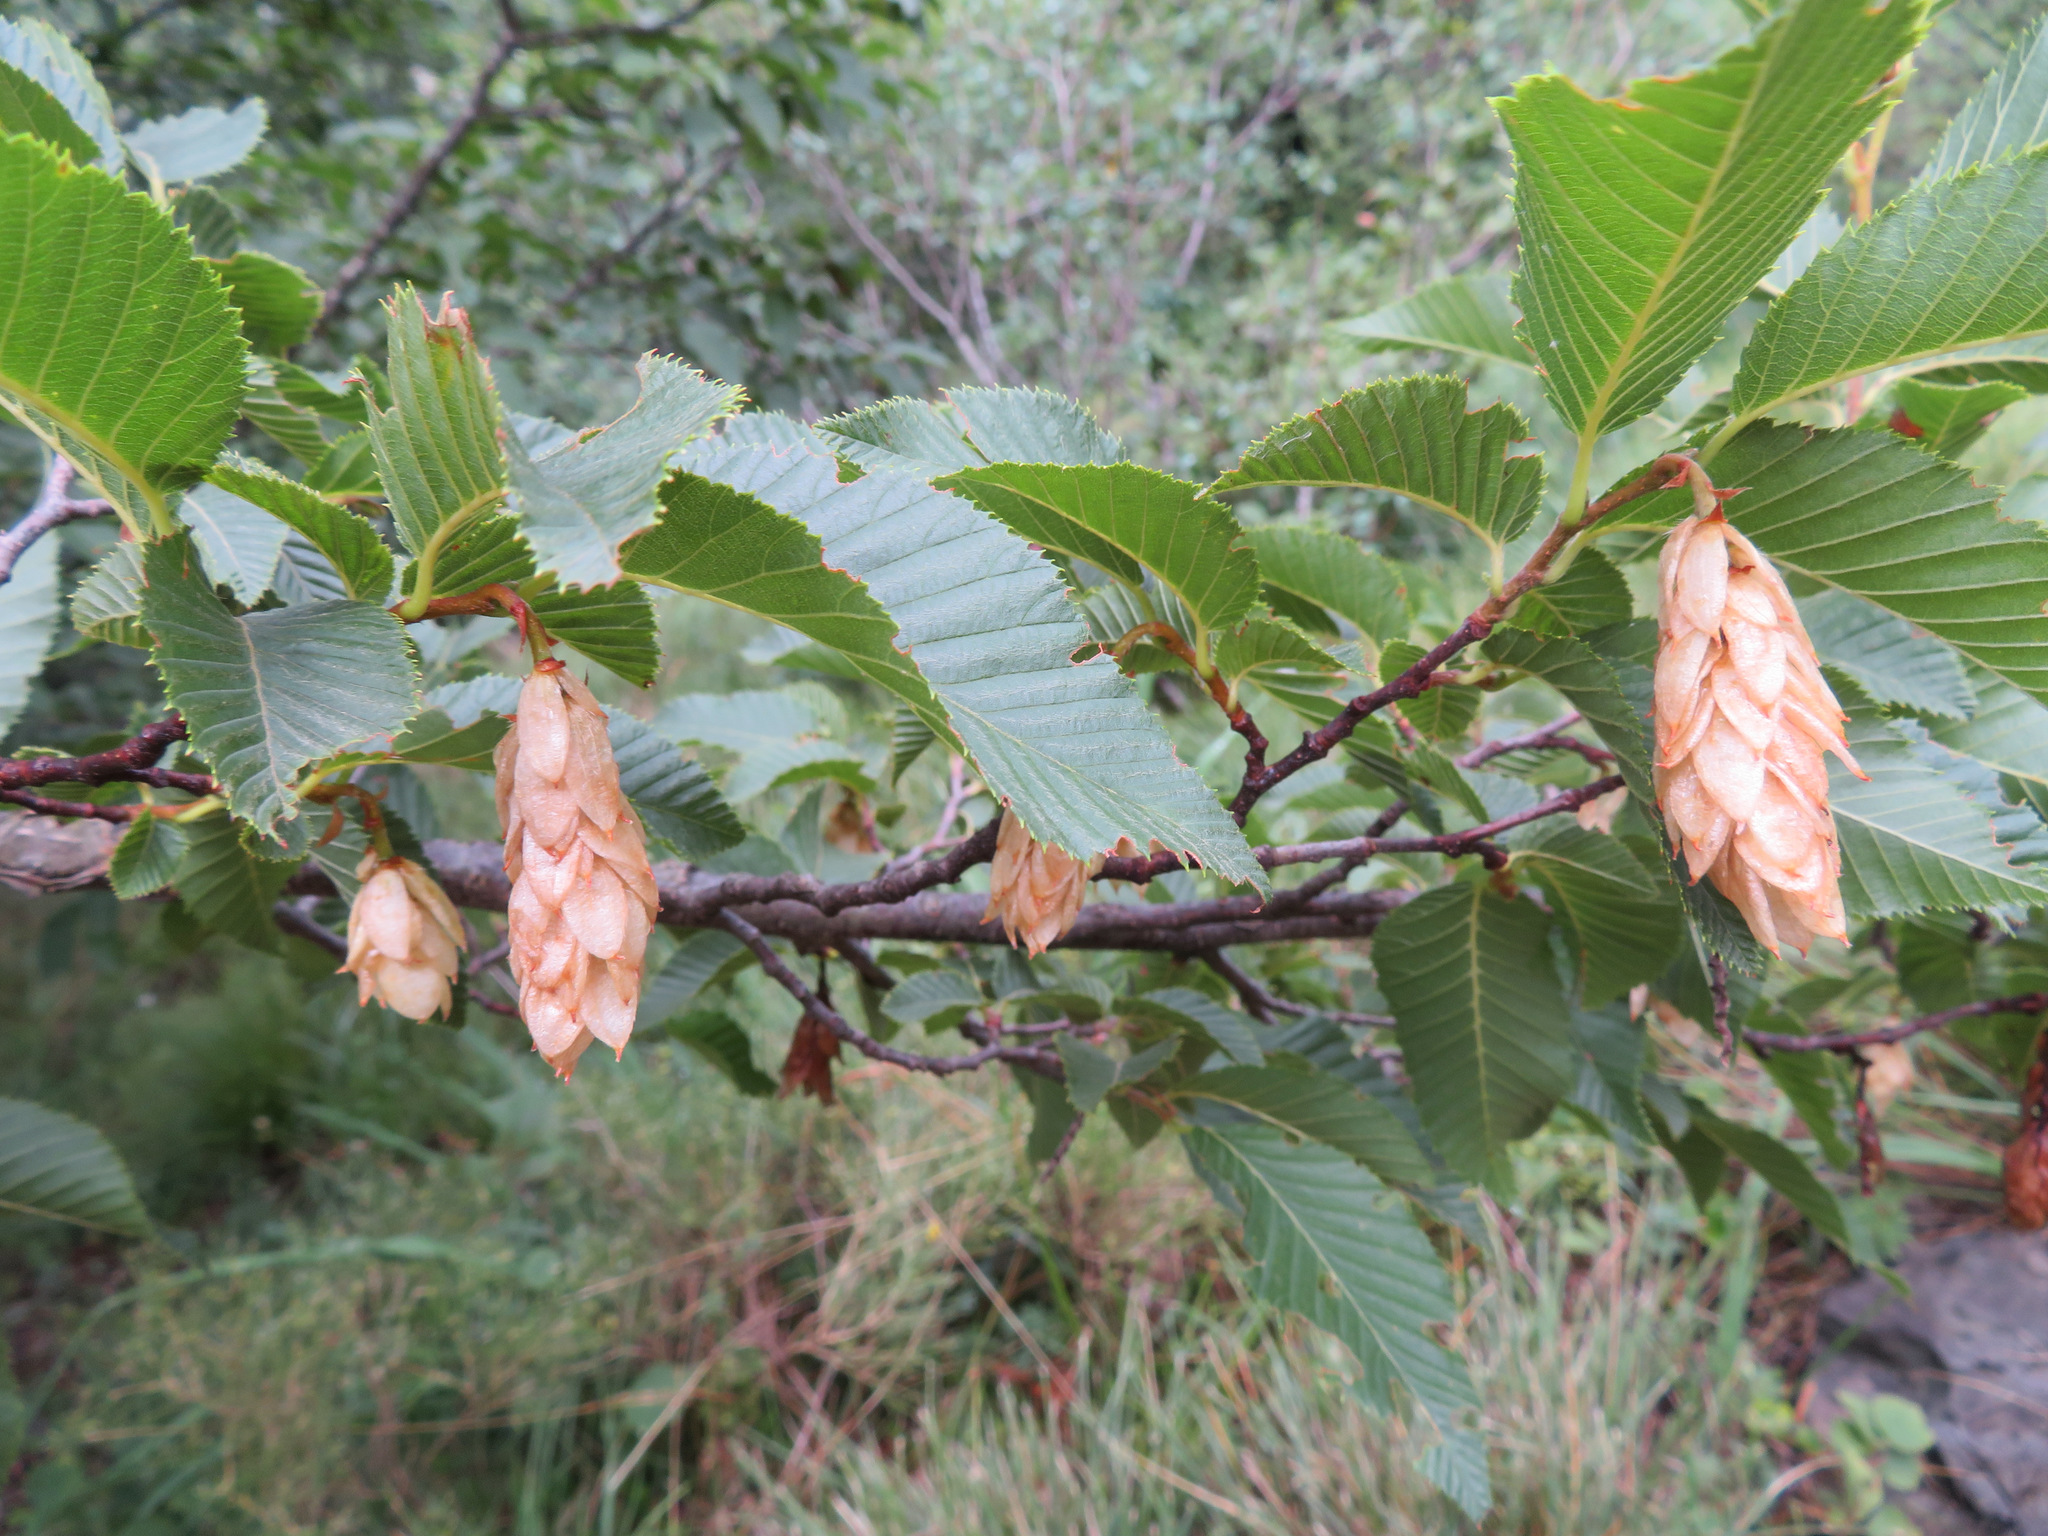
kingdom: Plantae
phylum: Tracheophyta
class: Magnoliopsida
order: Fagales
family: Betulaceae
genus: Ostrya
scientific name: Ostrya carpinifolia
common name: European hop-hornbeam
